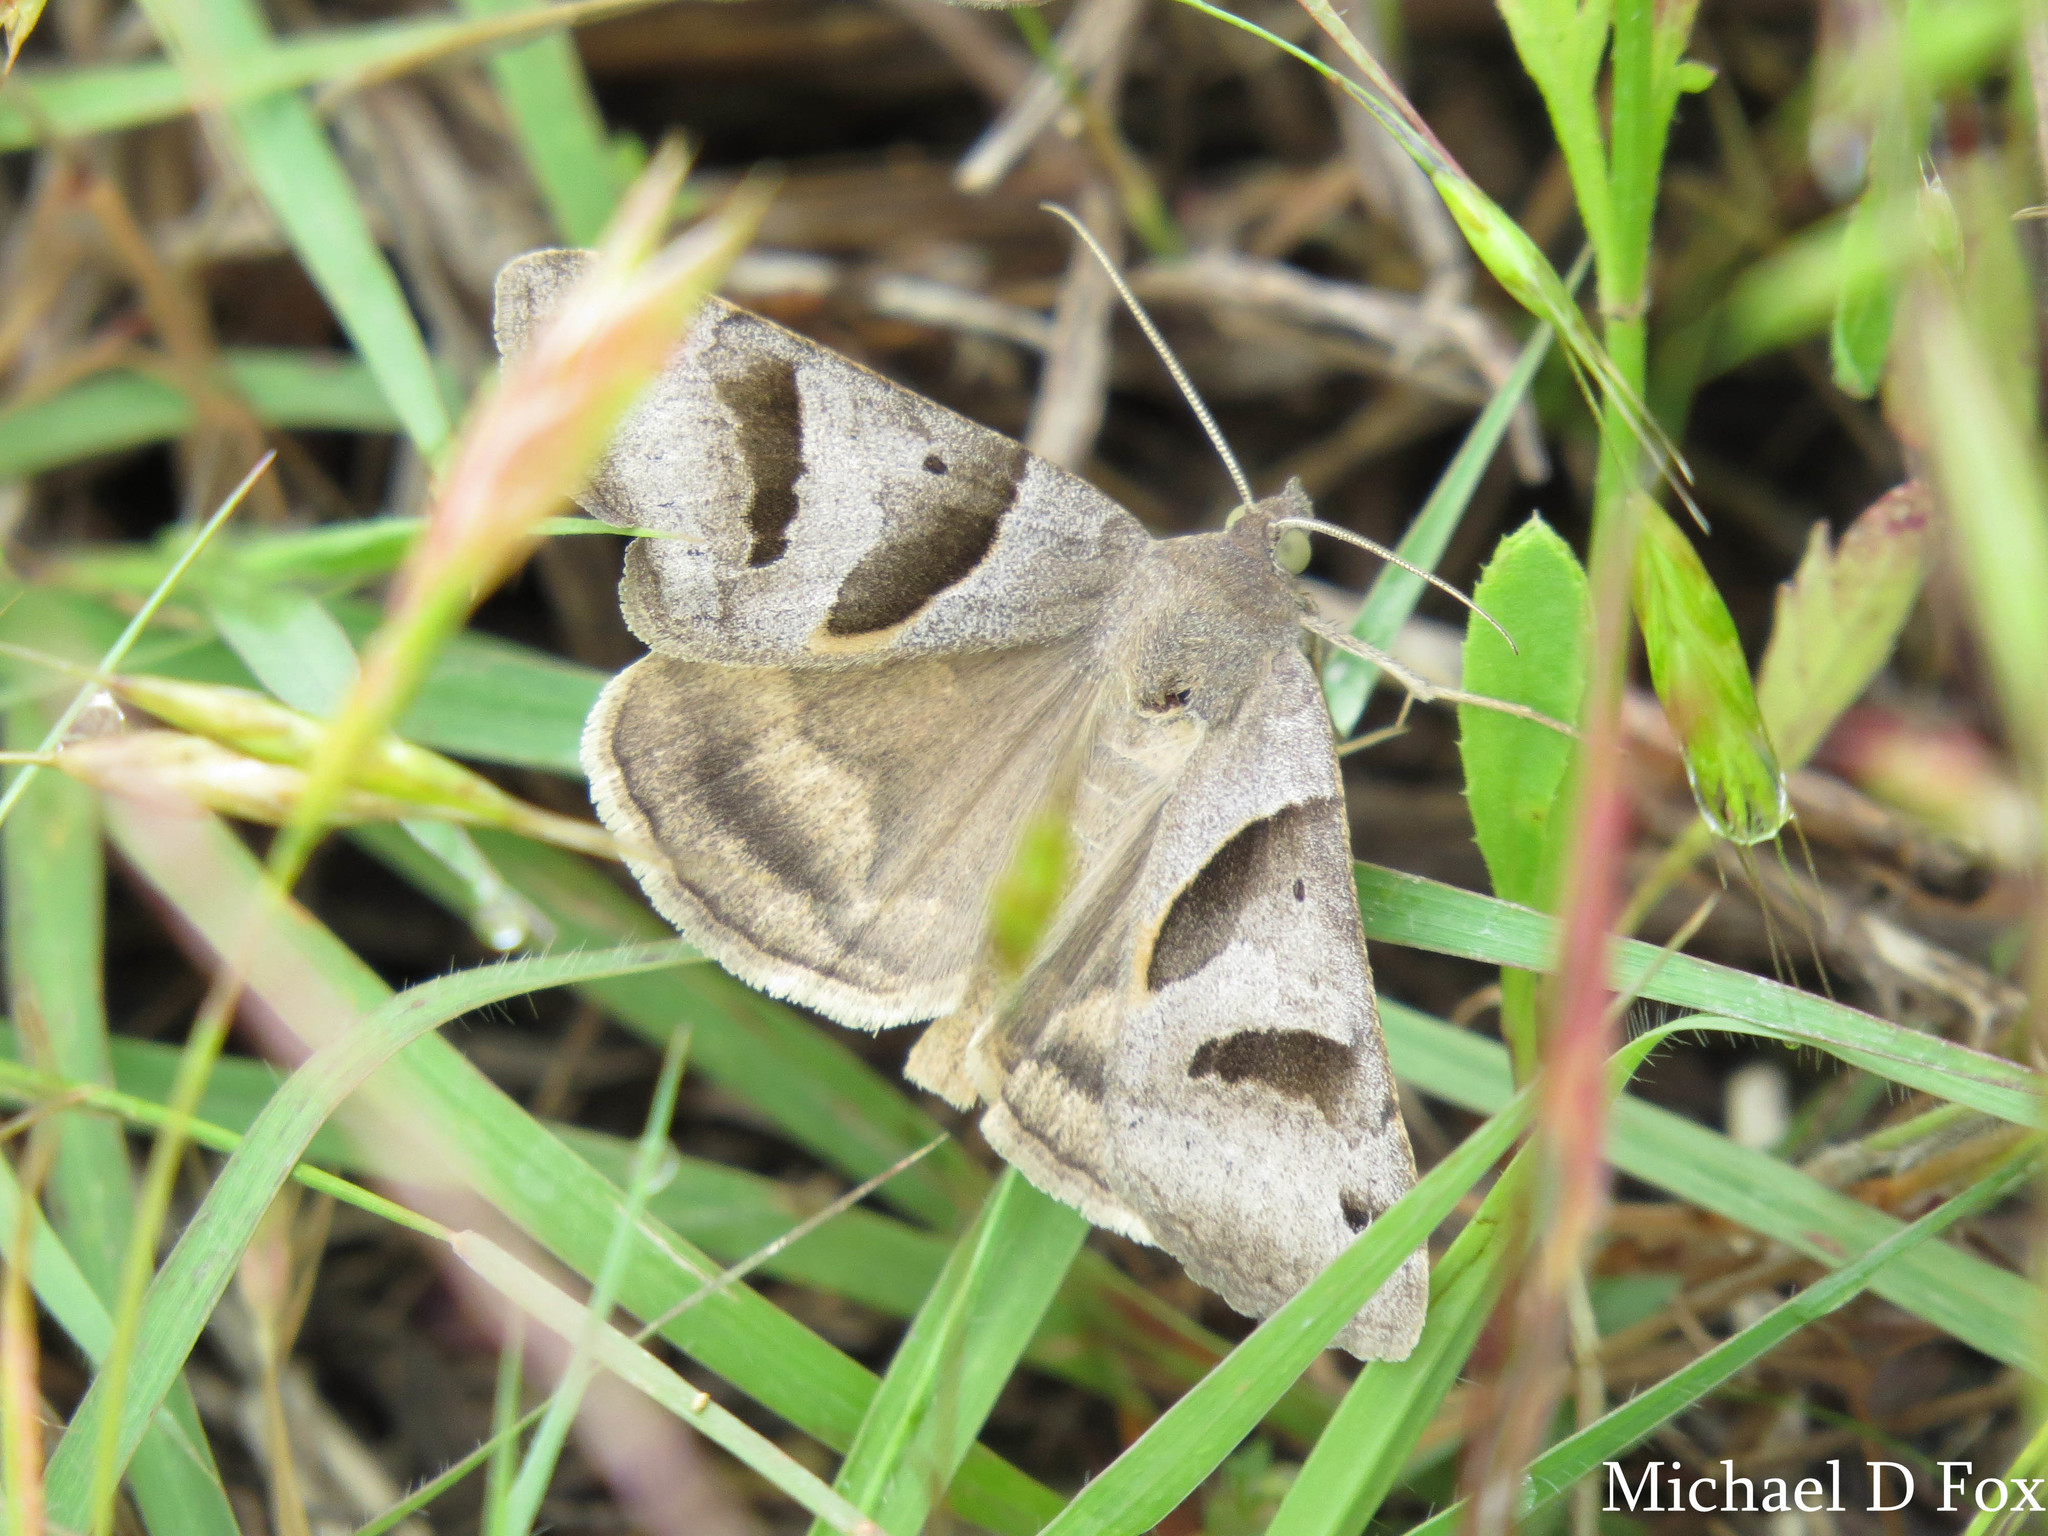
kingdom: Animalia
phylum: Arthropoda
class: Insecta
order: Lepidoptera
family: Erebidae
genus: Caenurgina
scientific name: Caenurgina erechtea
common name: Forage looper moth
